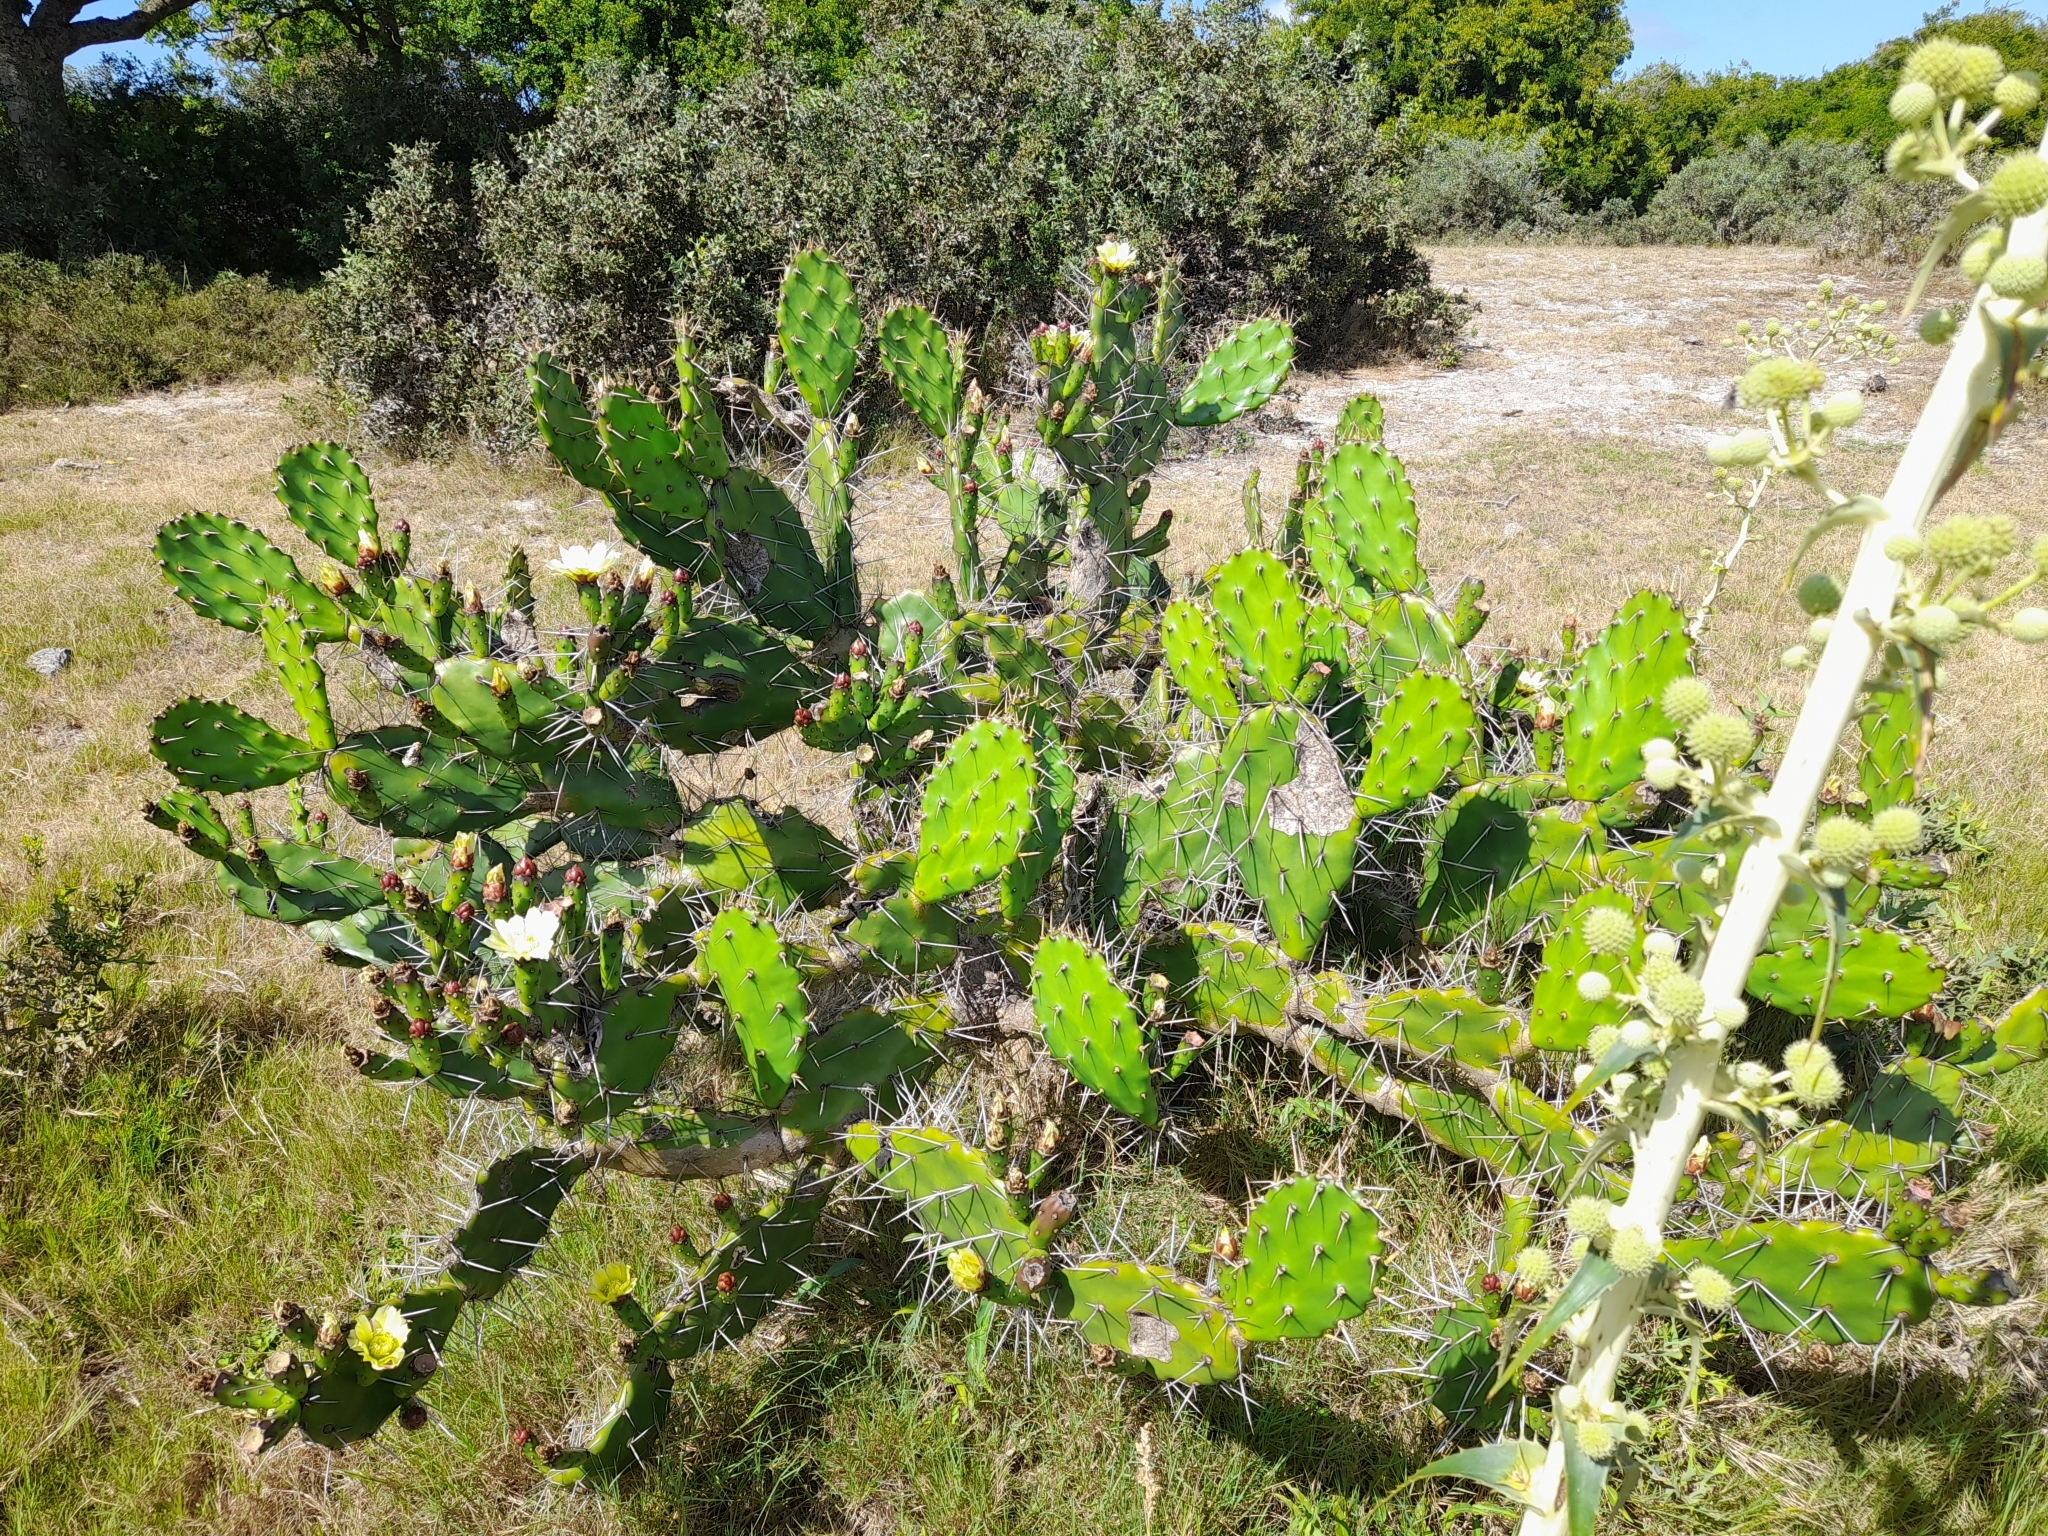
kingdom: Plantae
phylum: Tracheophyta
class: Magnoliopsida
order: Caryophyllales
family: Cactaceae
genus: Opuntia
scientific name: Opuntia arechavaletae
